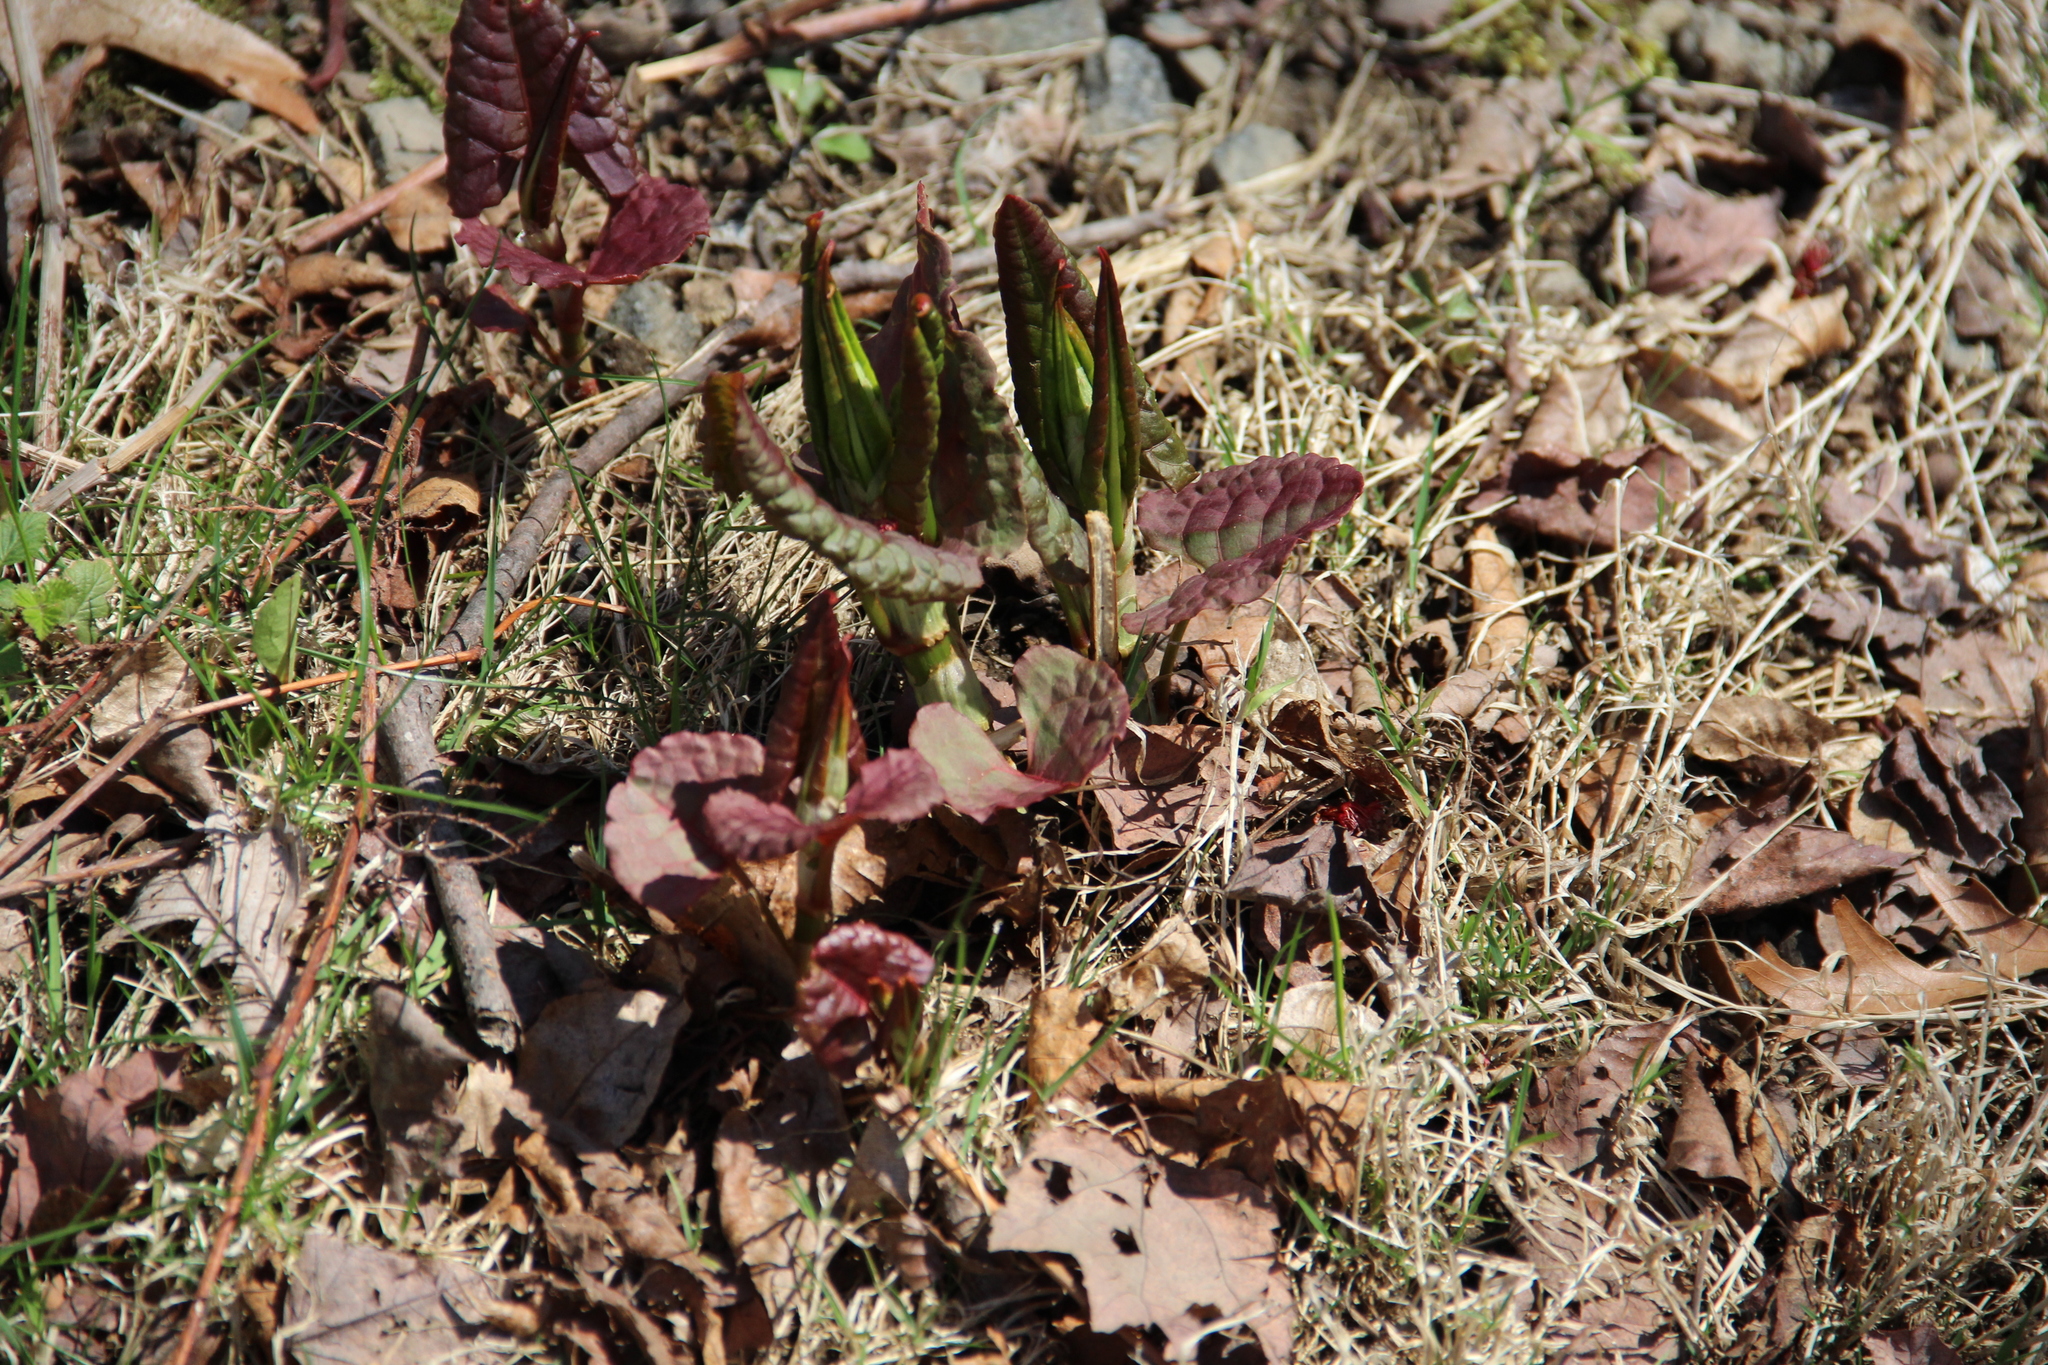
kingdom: Plantae
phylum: Tracheophyta
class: Magnoliopsida
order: Caryophyllales
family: Polygonaceae
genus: Reynoutria
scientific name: Reynoutria japonica
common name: Japanese knotweed
